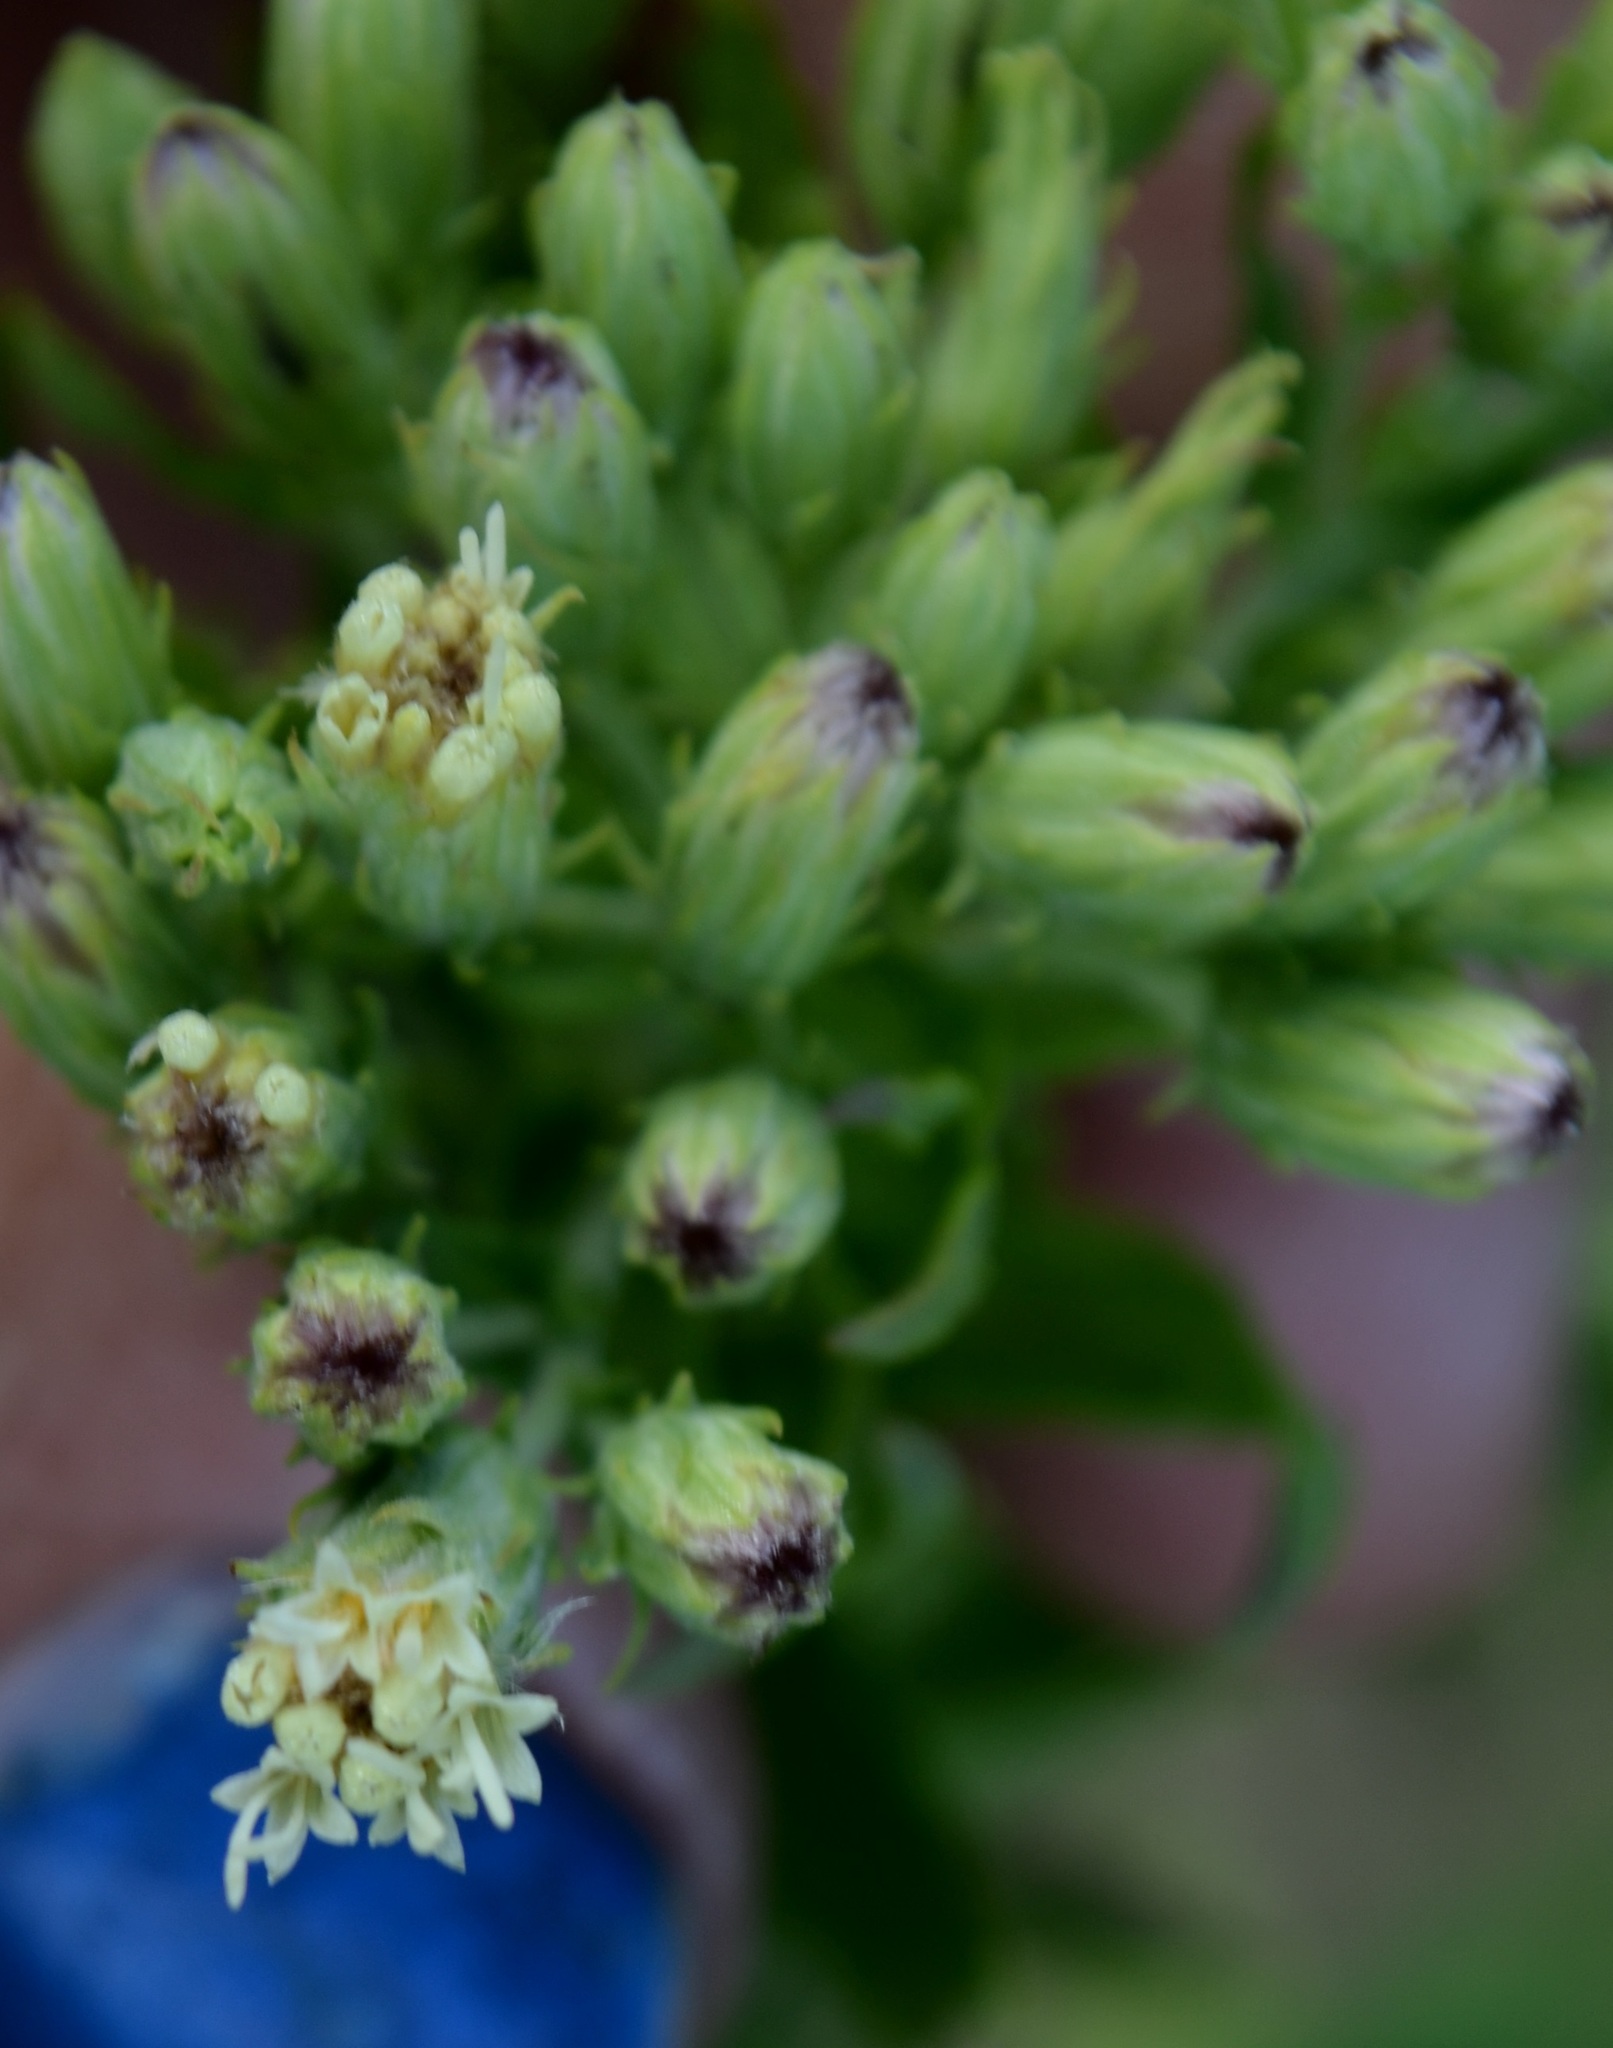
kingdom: Plantae
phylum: Tracheophyta
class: Magnoliopsida
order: Asterales
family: Asteraceae
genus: Brickellia
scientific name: Brickellia eupatorioides
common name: False boneset
